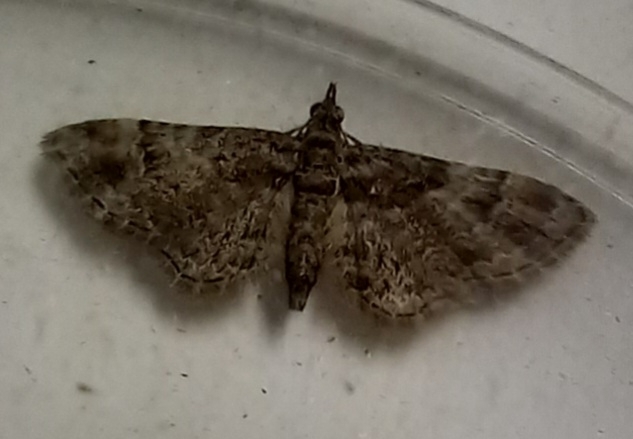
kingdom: Animalia
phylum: Arthropoda
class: Insecta
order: Lepidoptera
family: Geometridae
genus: Gymnoscelis
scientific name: Gymnoscelis rufifasciata
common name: Double-striped pug
